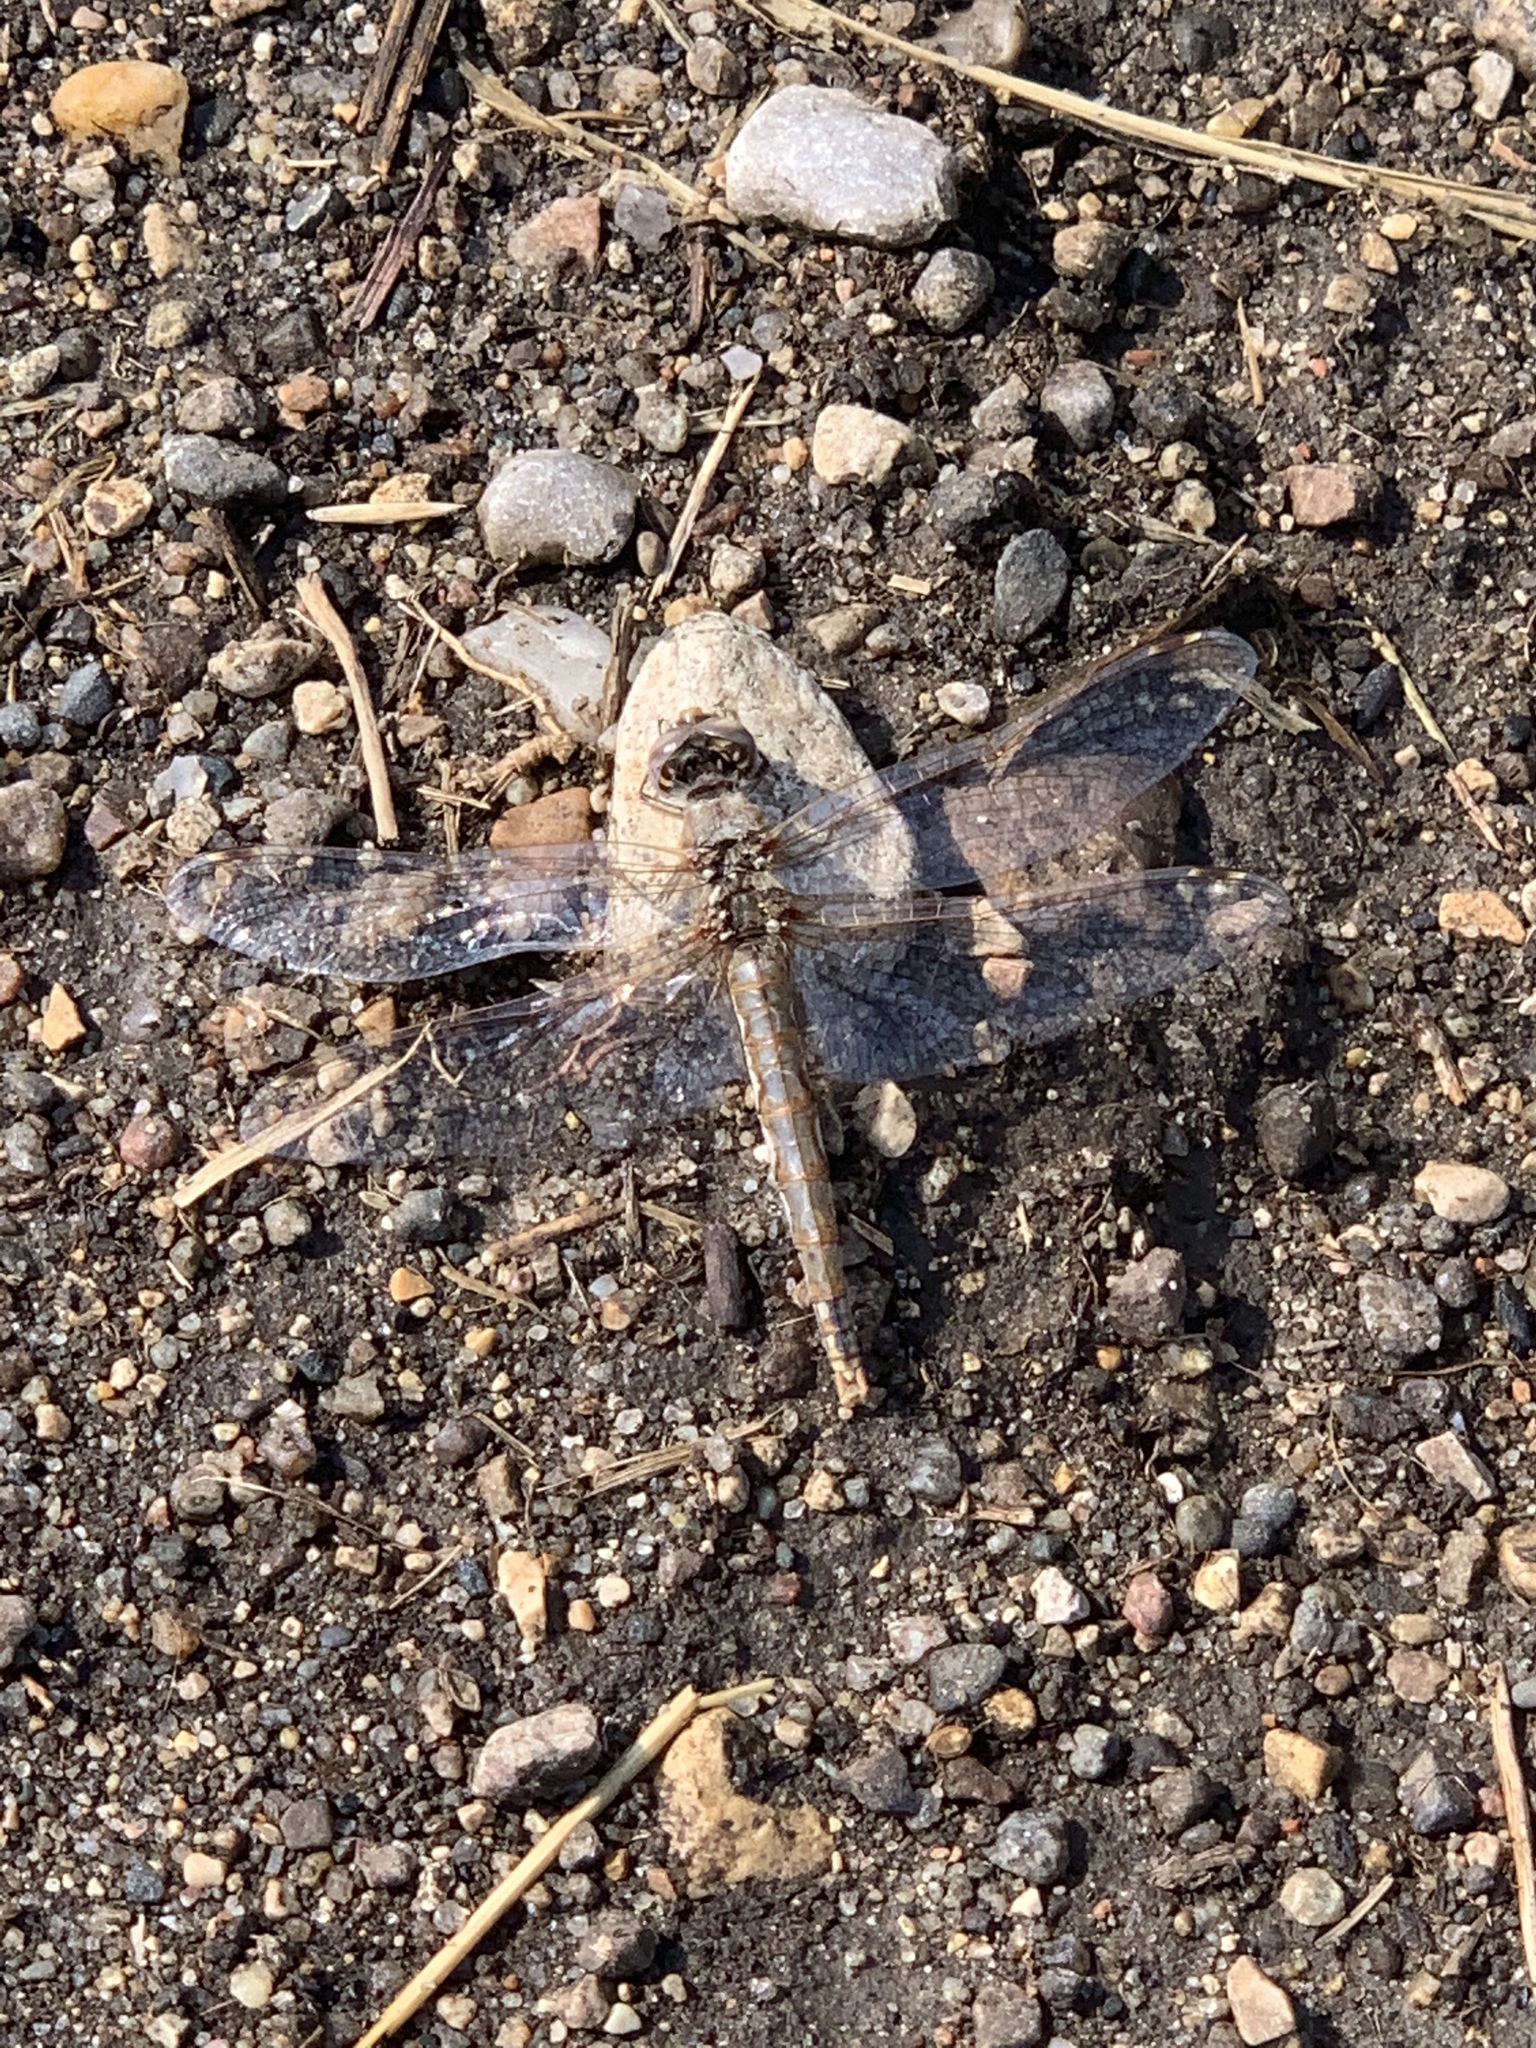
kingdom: Animalia
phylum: Arthropoda
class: Insecta
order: Odonata
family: Libellulidae
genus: Sympetrum
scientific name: Sympetrum corruptum
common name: Variegated meadowhawk
